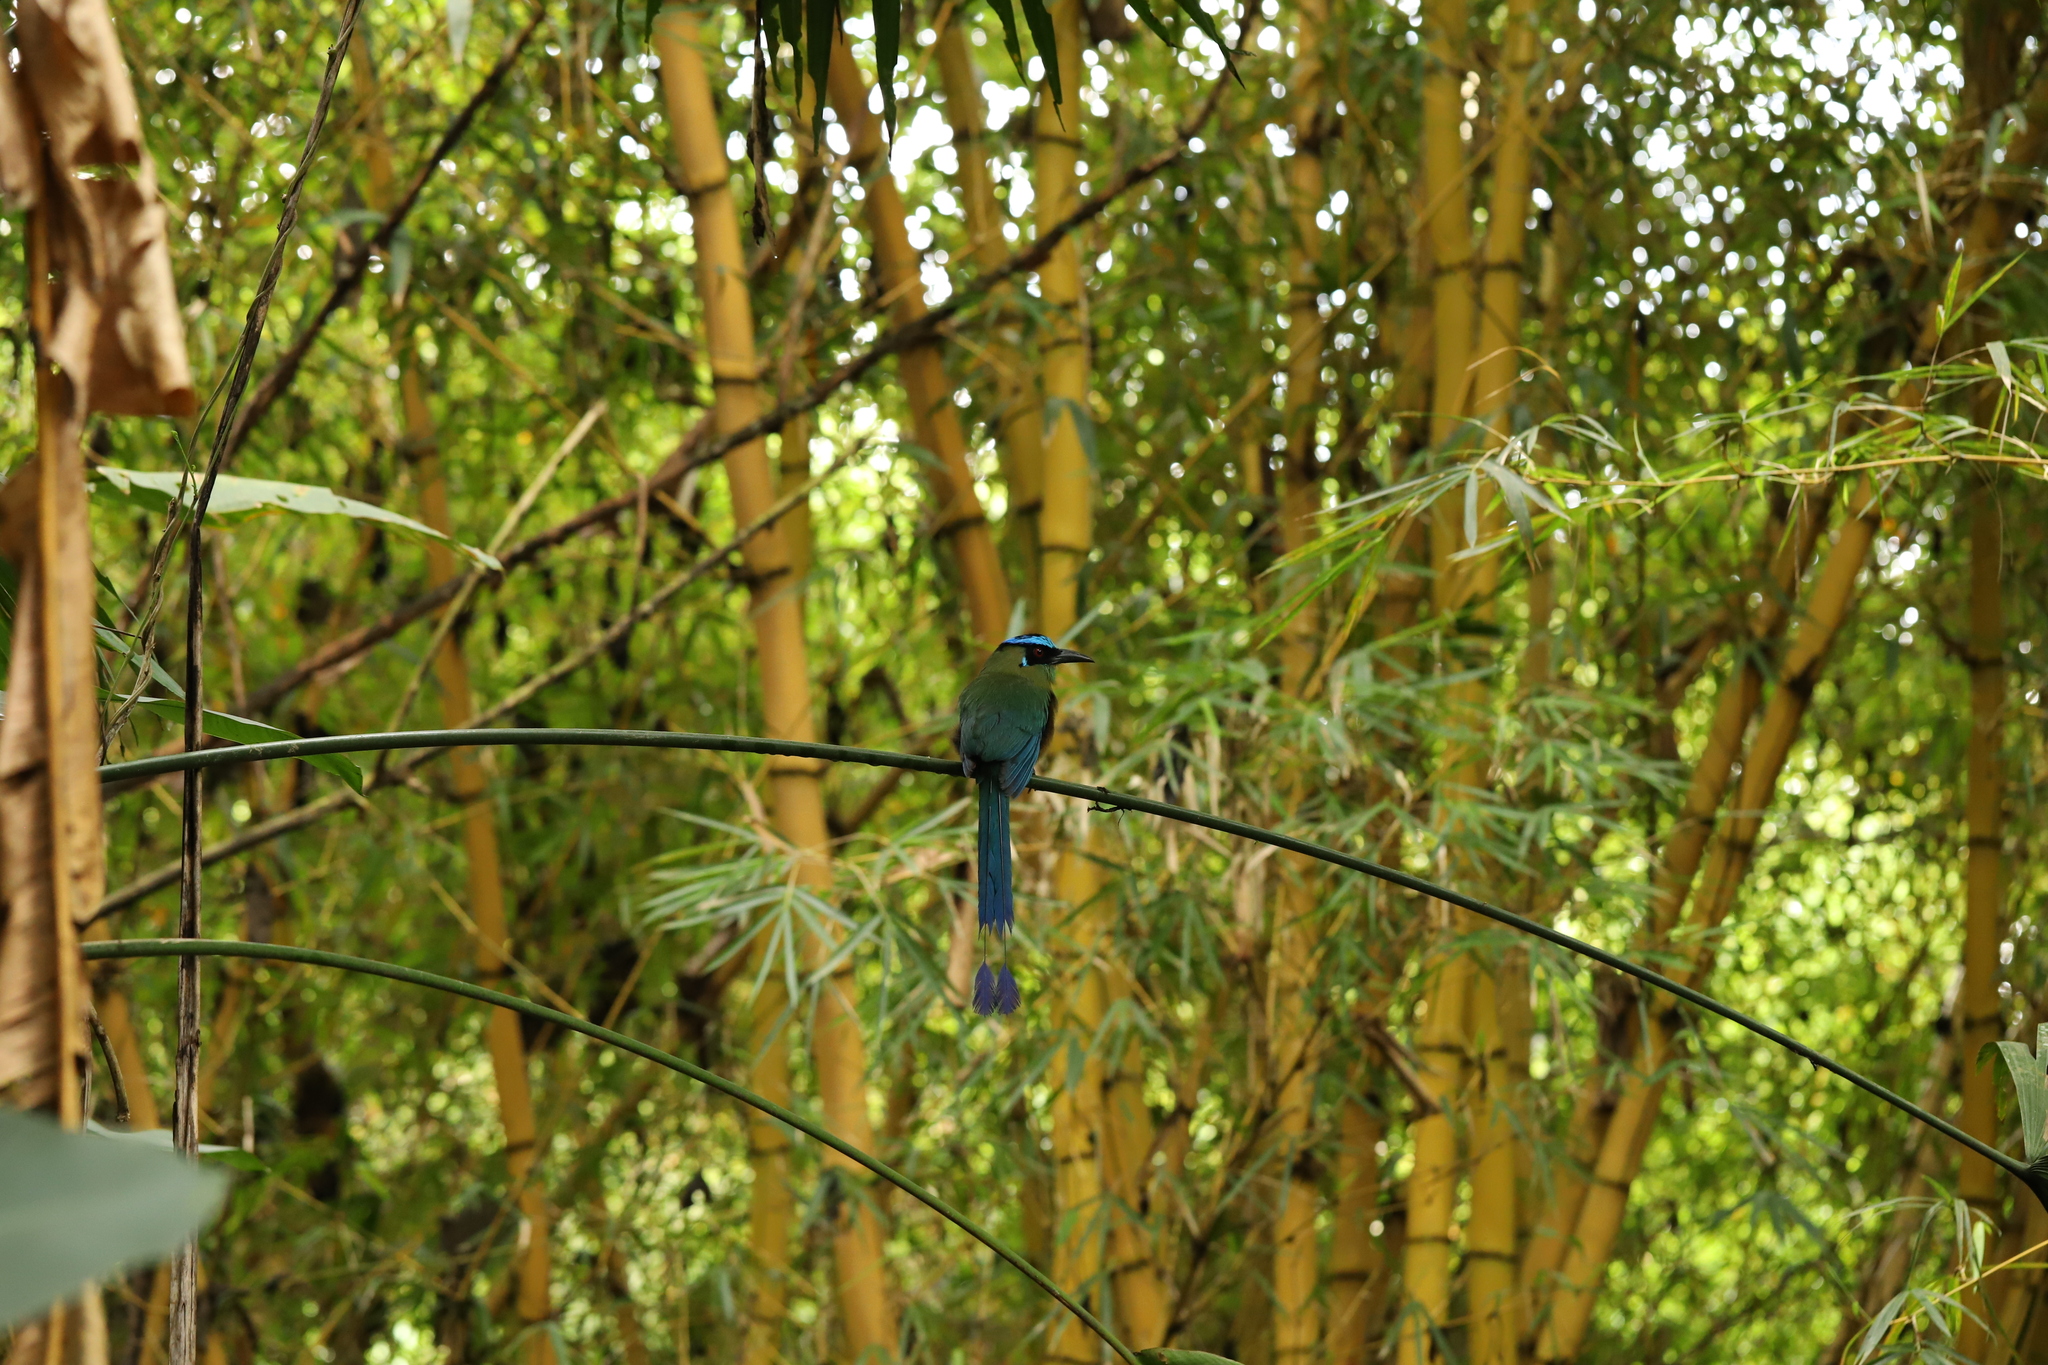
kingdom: Animalia
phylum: Chordata
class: Aves
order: Coraciiformes
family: Momotidae
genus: Momotus
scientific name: Momotus aequatorialis
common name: Andean motmot
